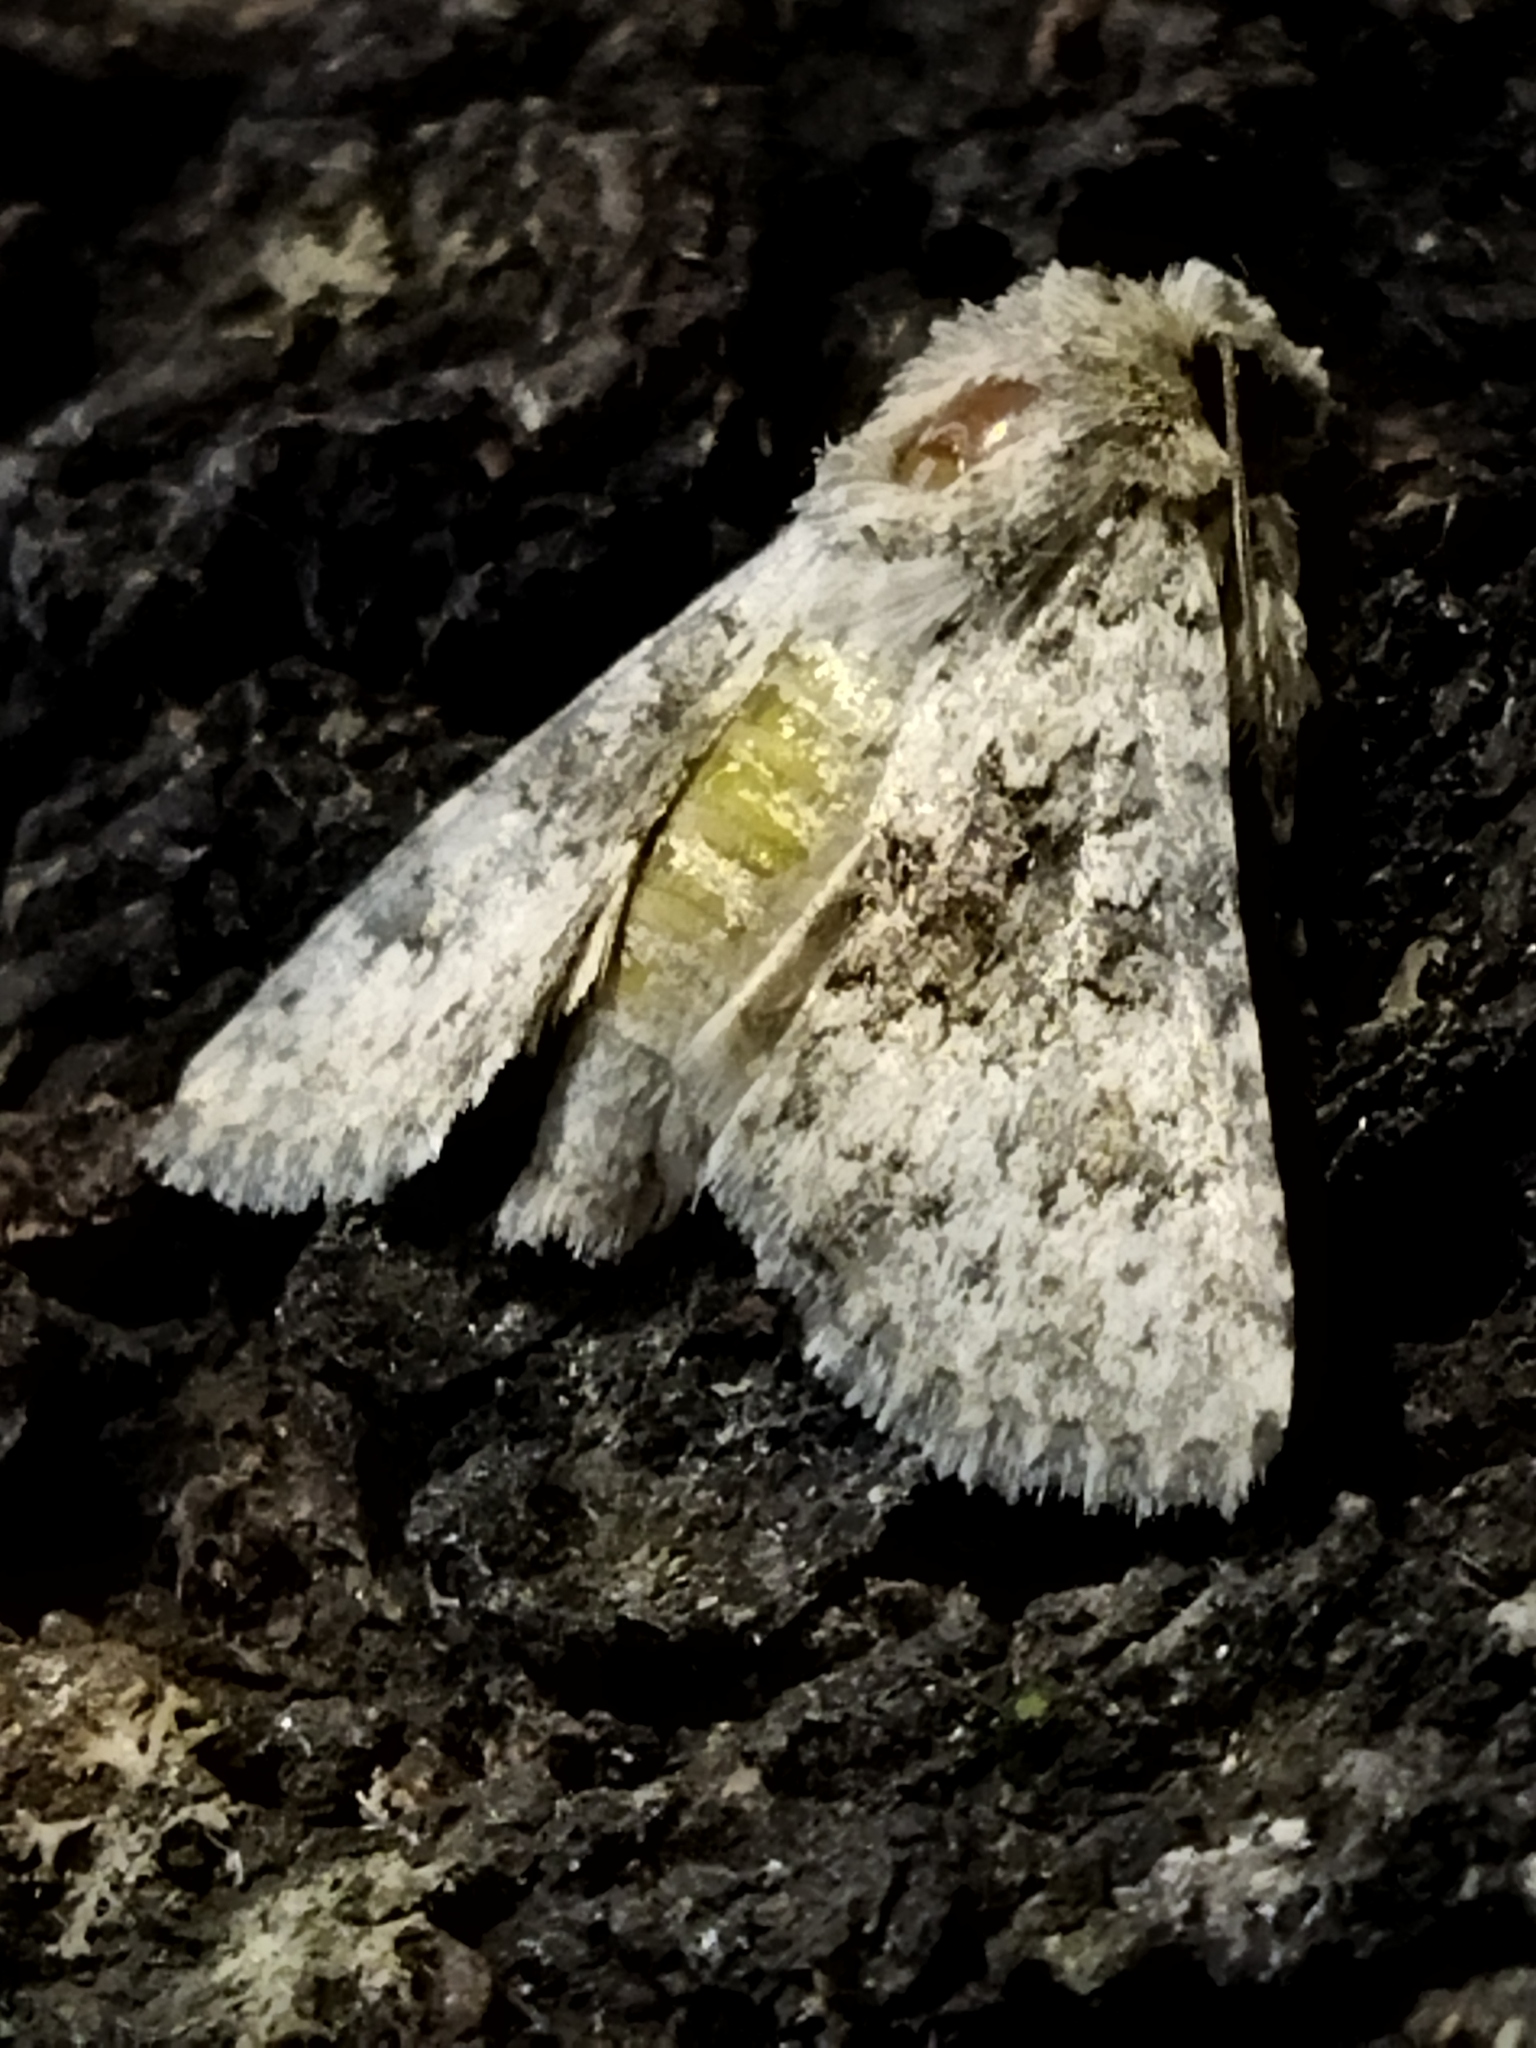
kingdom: Animalia
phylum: Arthropoda
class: Insecta
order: Lepidoptera
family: Noctuidae
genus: Hecatera
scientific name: Hecatera dysodea
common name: Small ranunculus
